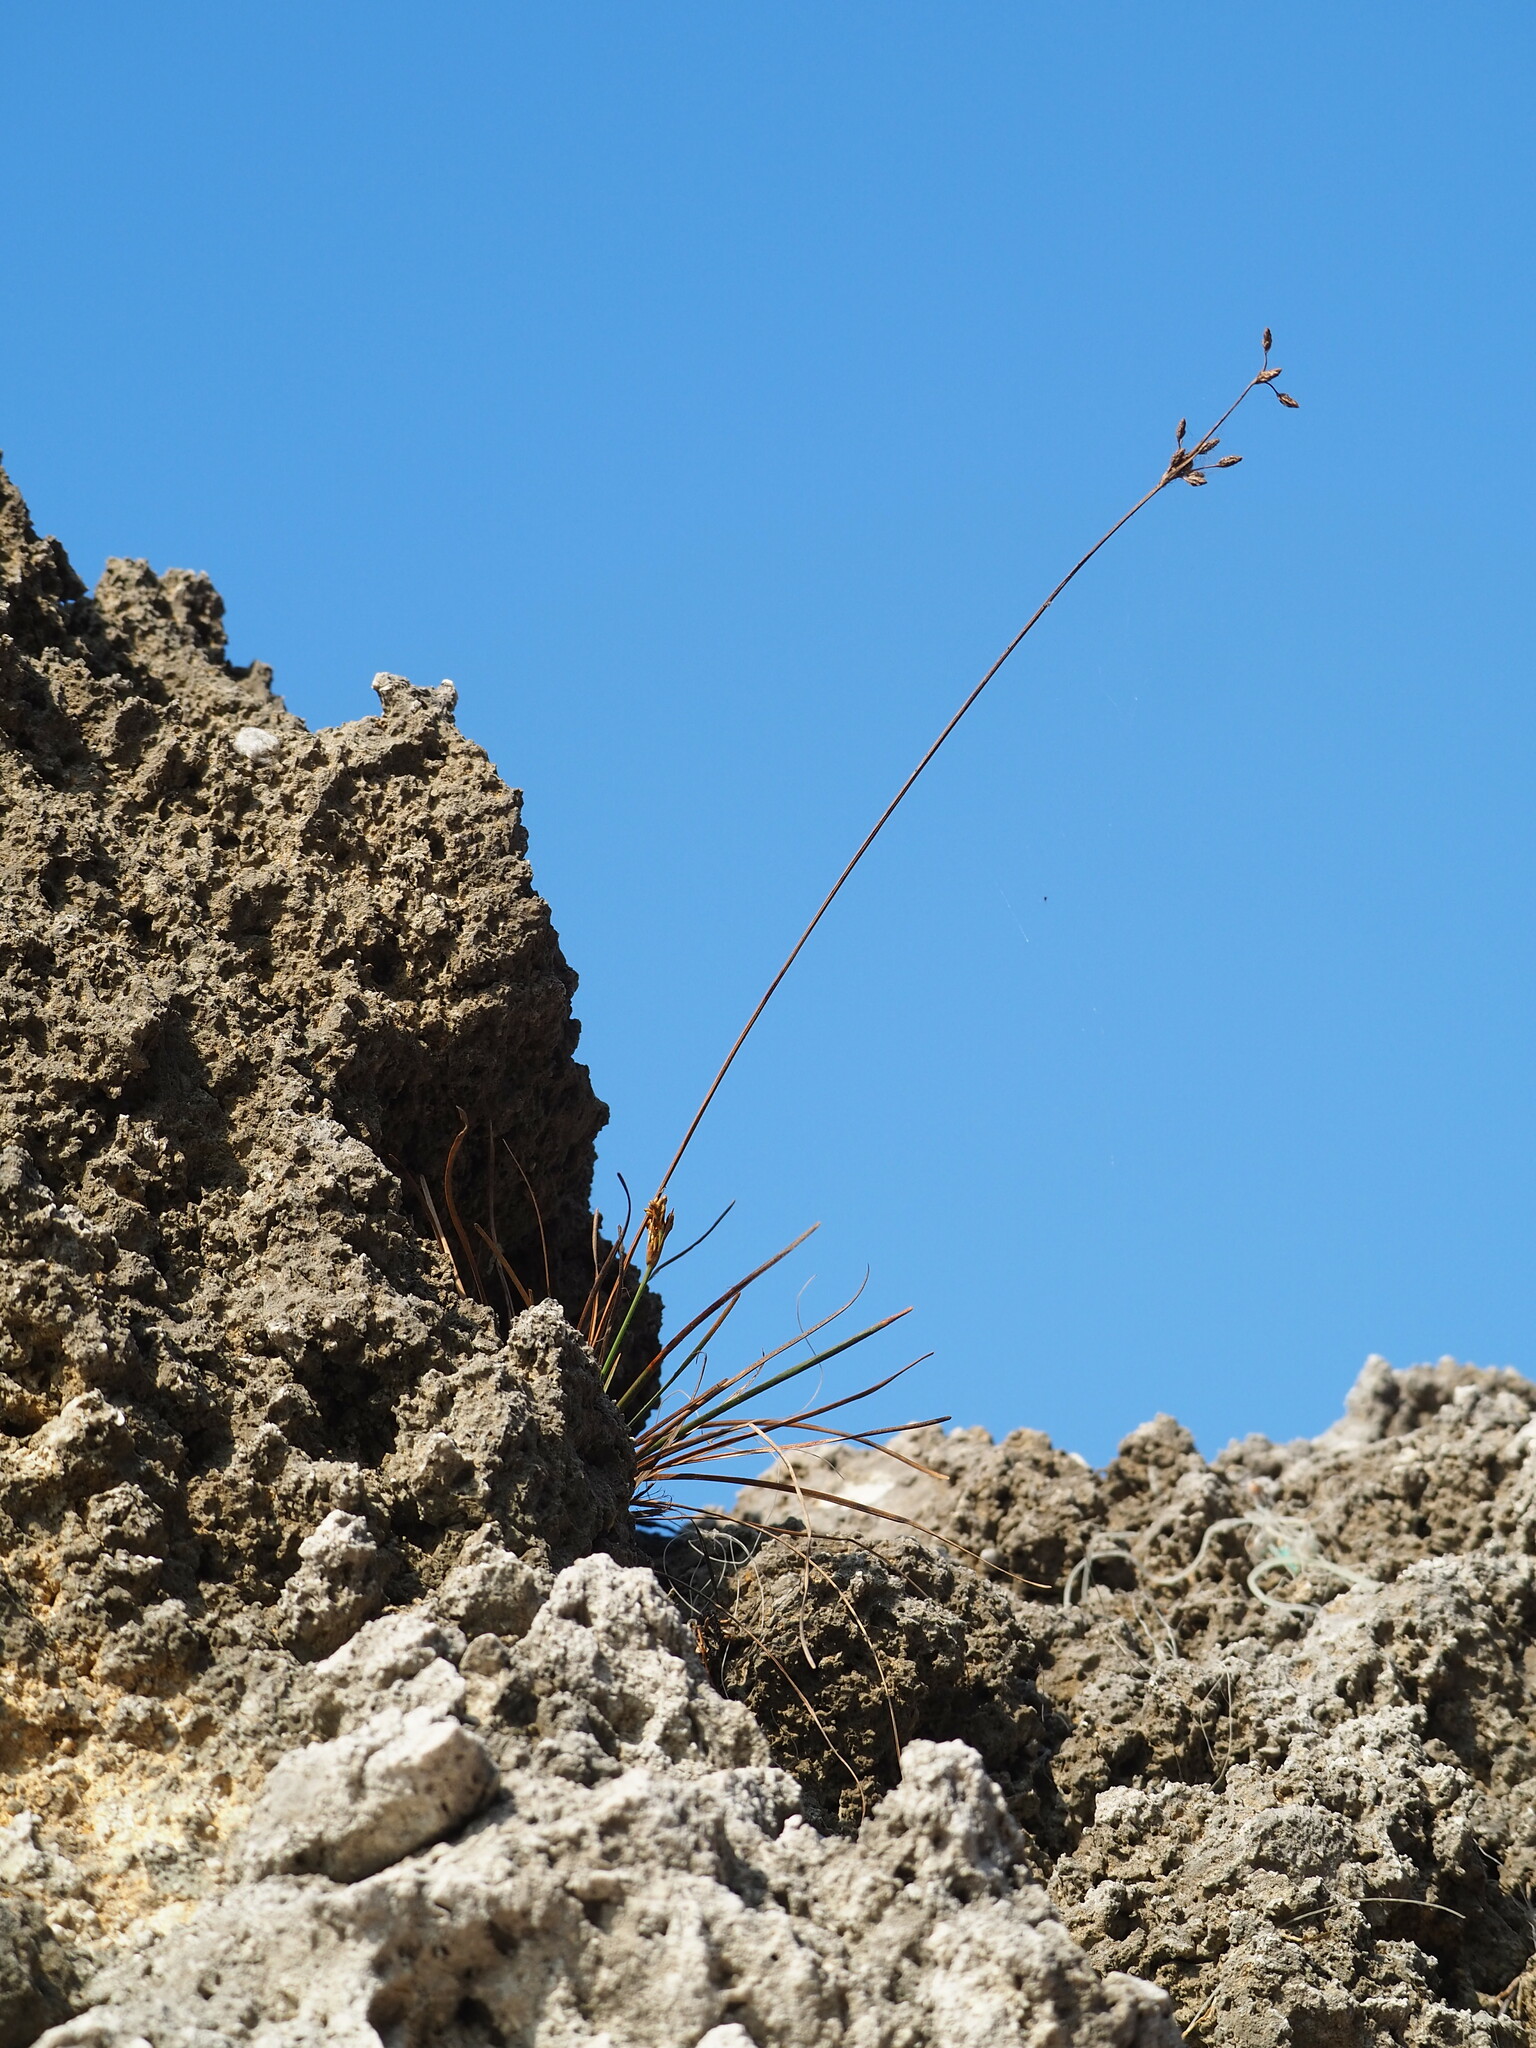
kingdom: Plantae
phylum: Tracheophyta
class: Liliopsida
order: Poales
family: Cyperaceae
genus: Fimbristylis
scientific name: Fimbristylis cymosa
